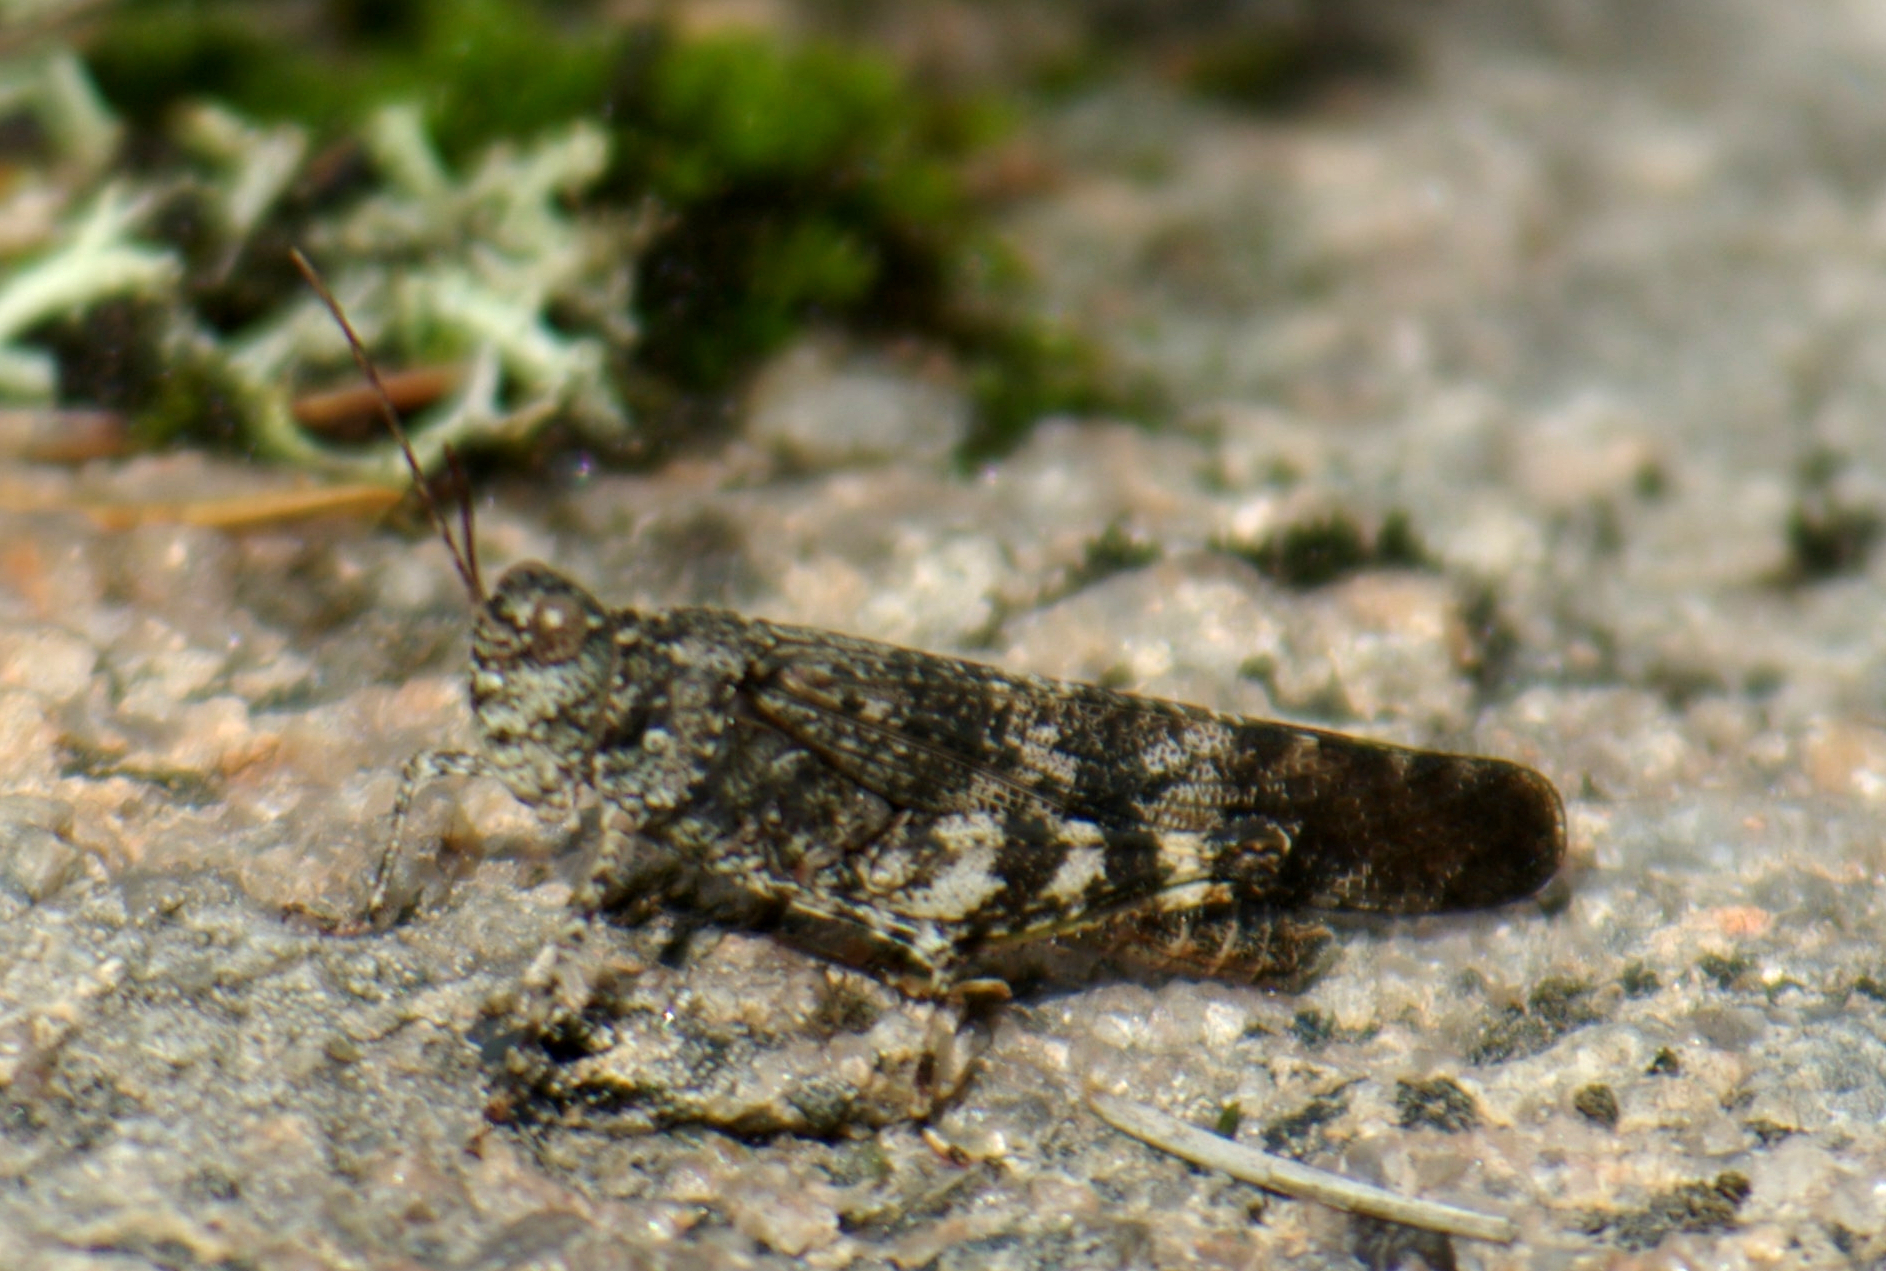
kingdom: Animalia
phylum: Arthropoda
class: Insecta
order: Orthoptera
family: Acrididae
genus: Trimerotropis
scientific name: Trimerotropis verruculata
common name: Crackling forest grasshopper
